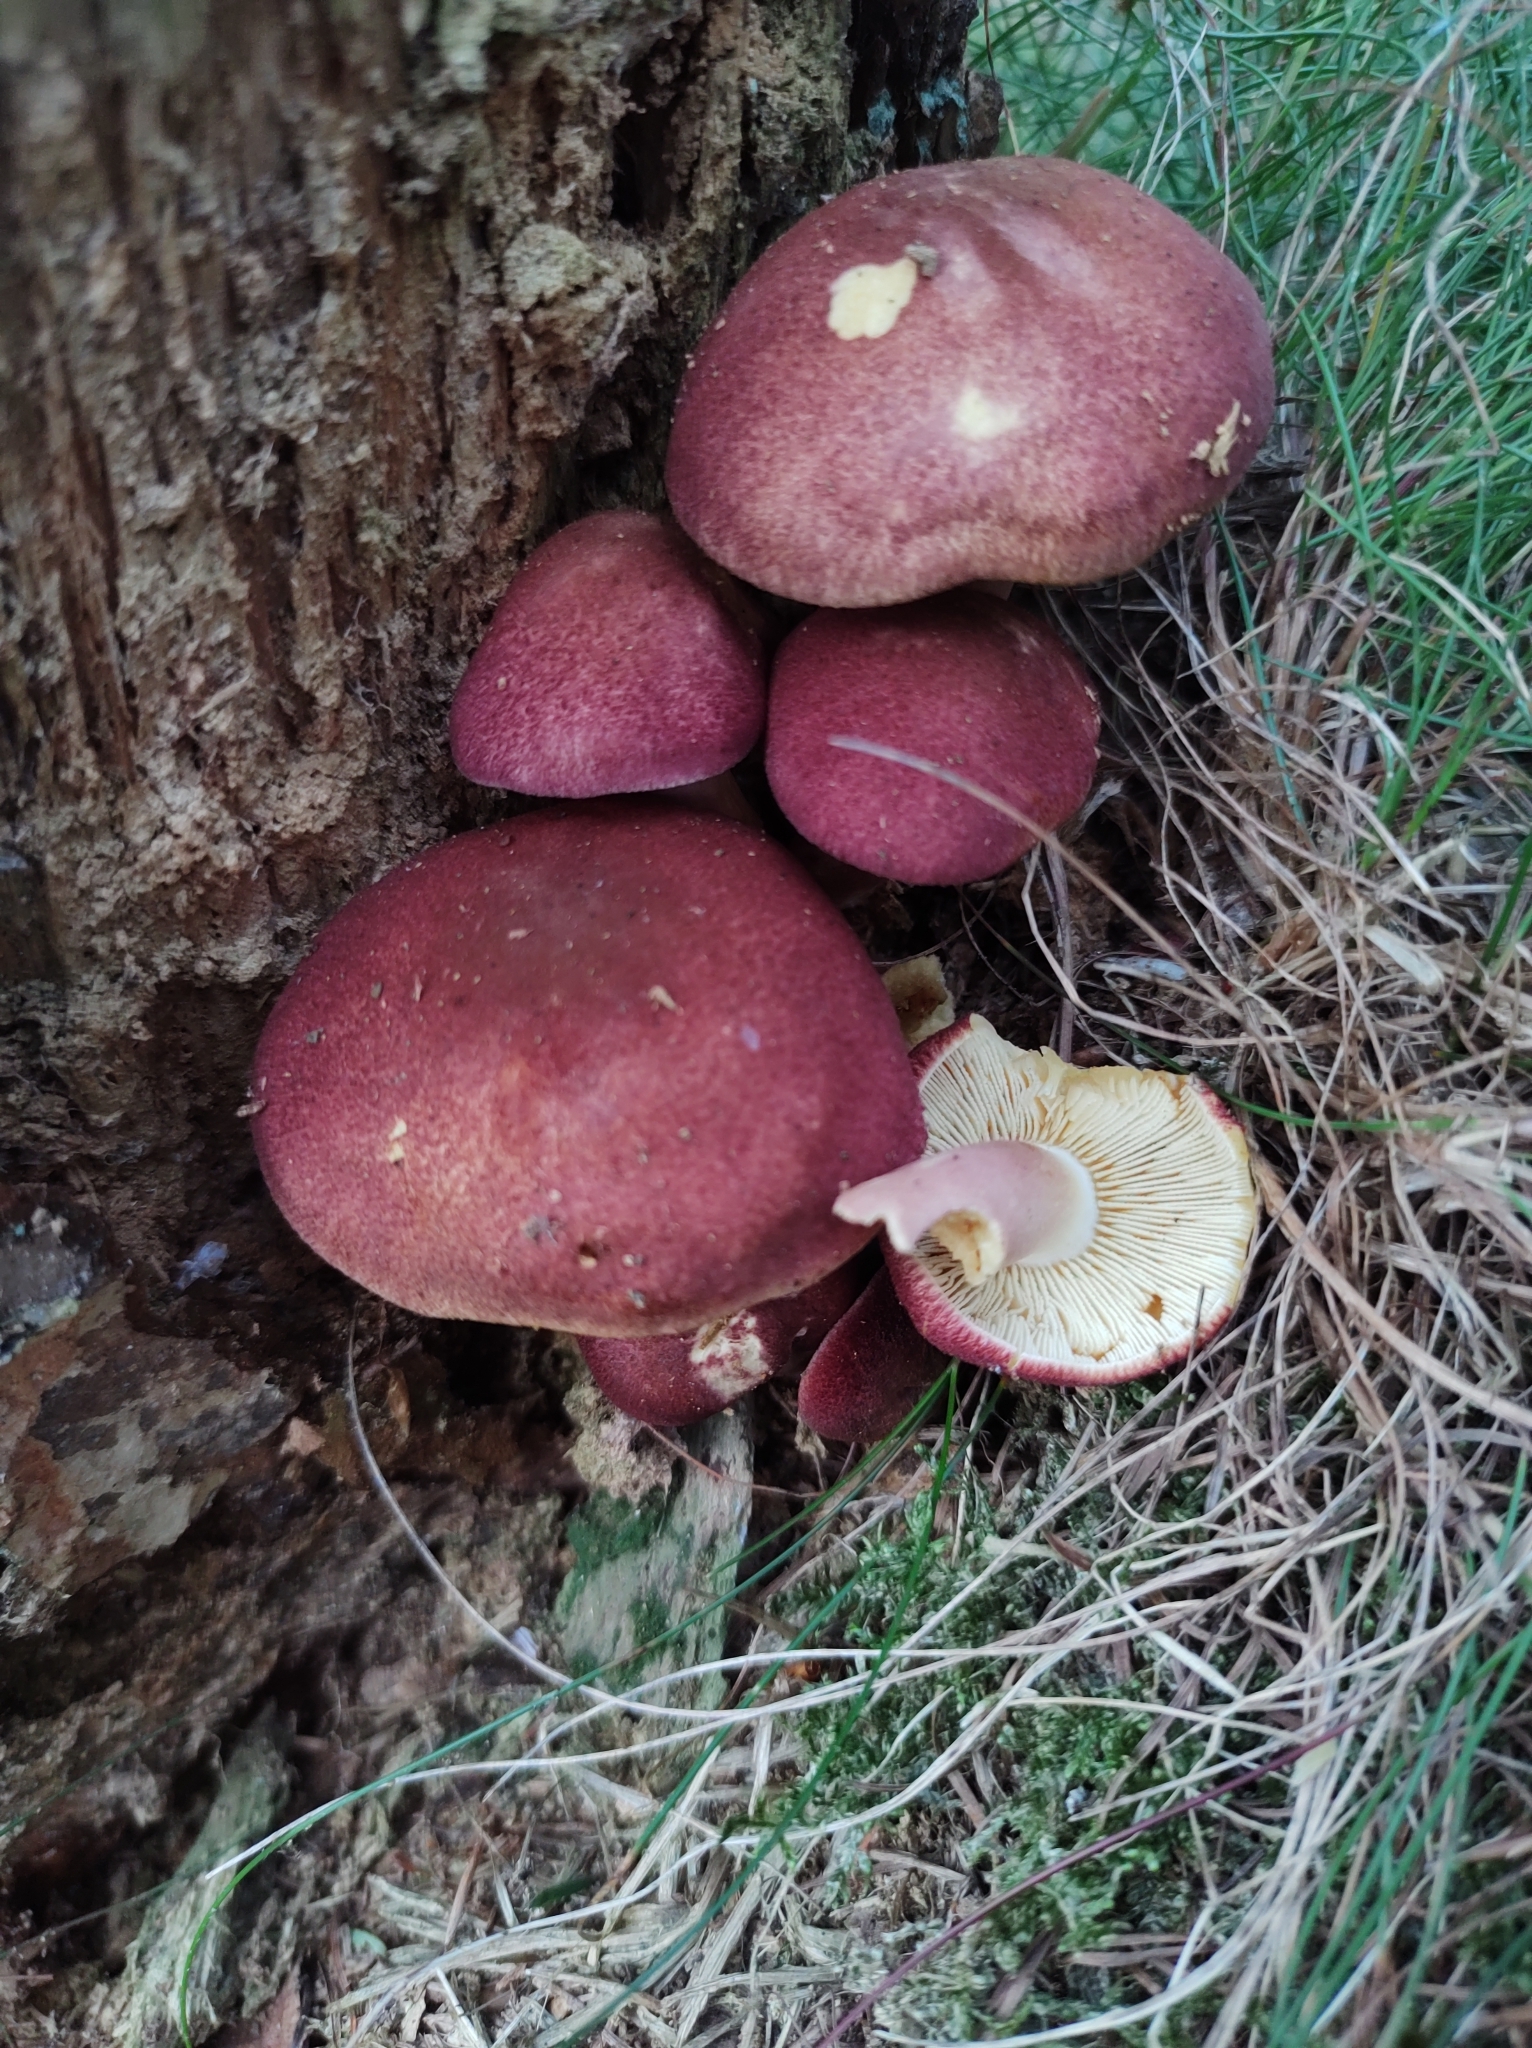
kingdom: Fungi
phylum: Basidiomycota
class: Agaricomycetes
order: Agaricales
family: Tricholomataceae
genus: Tricholomopsis
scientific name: Tricholomopsis rutilans
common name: Plums and custard
